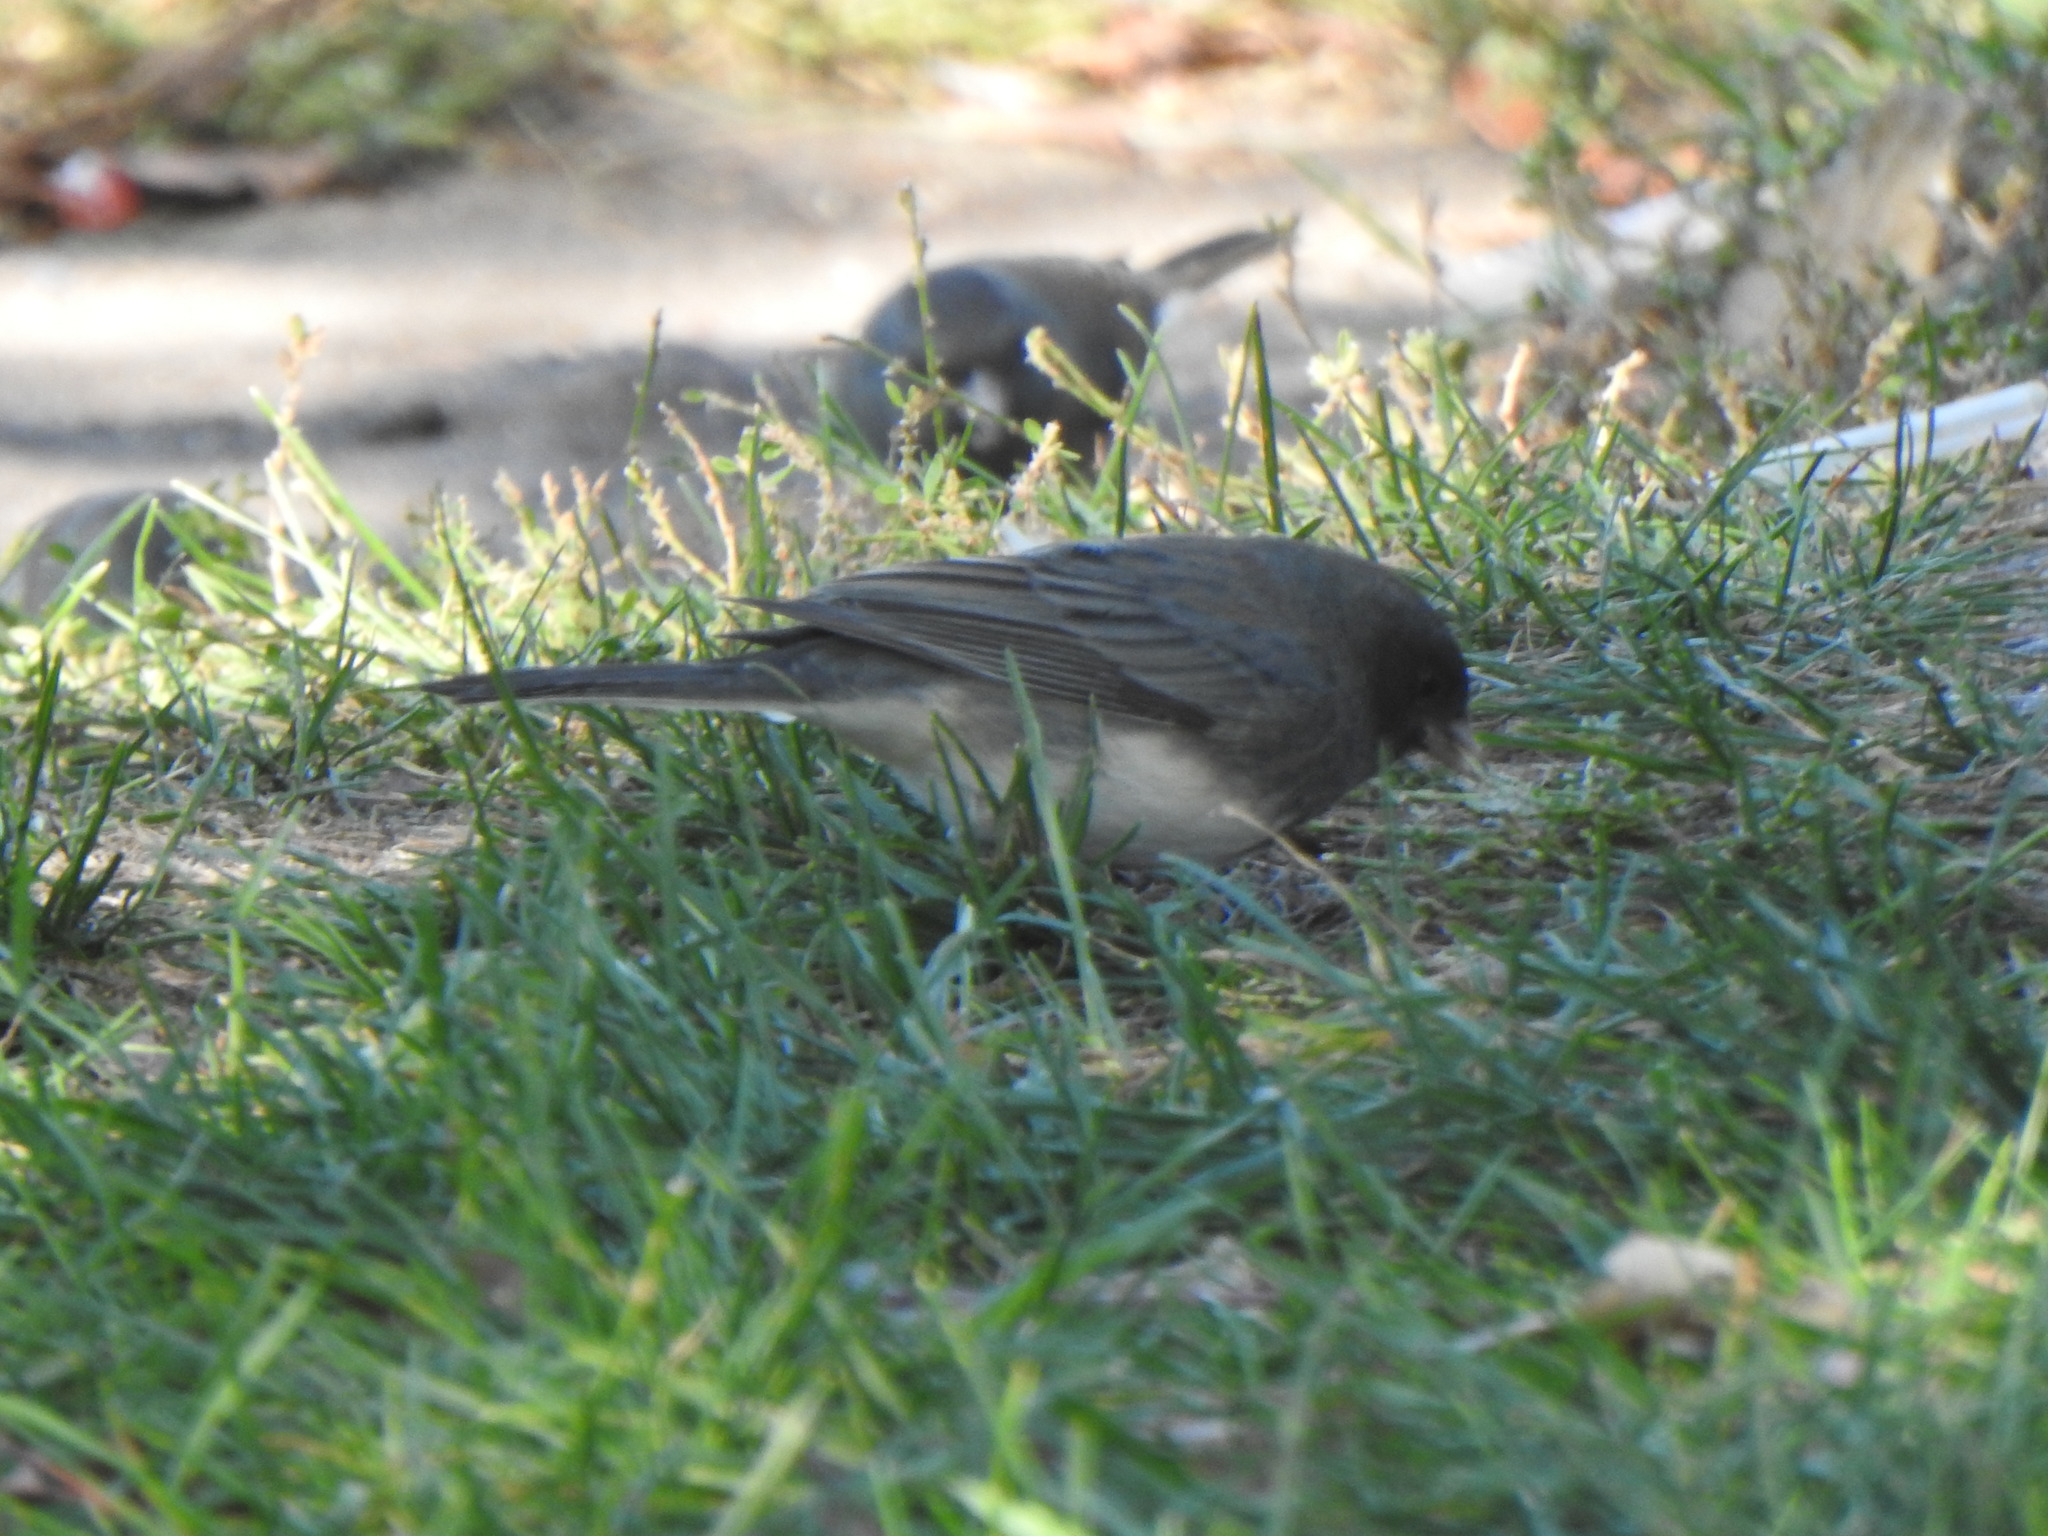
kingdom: Animalia
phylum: Chordata
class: Aves
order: Passeriformes
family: Passerellidae
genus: Junco
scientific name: Junco hyemalis
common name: Dark-eyed junco
